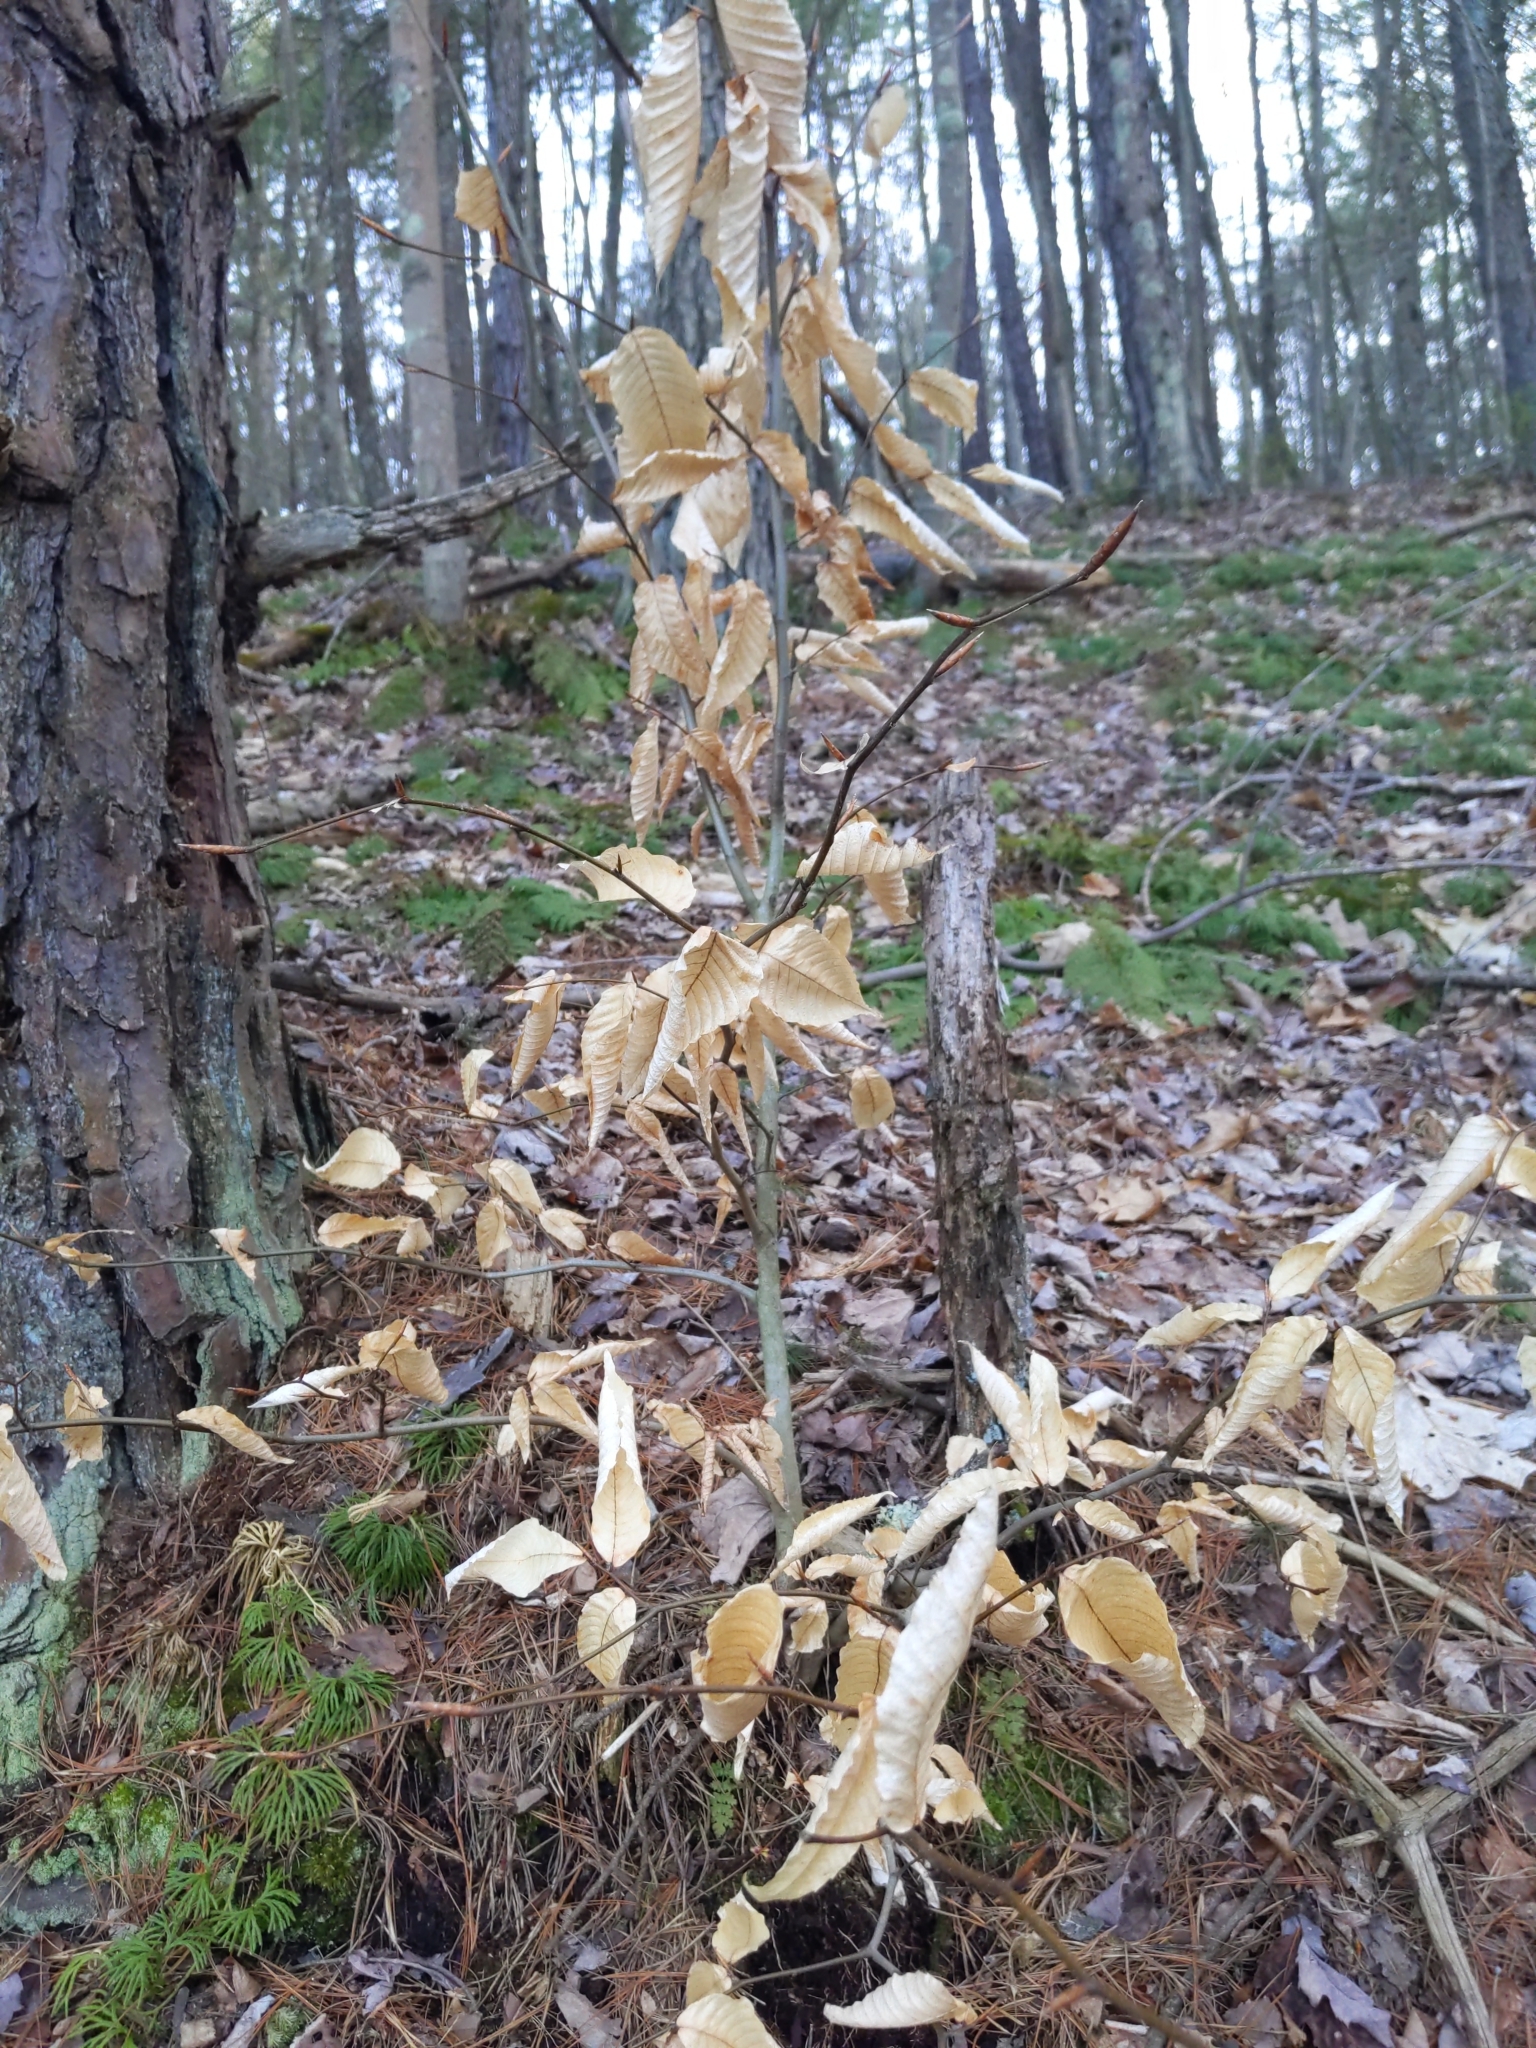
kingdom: Plantae
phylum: Tracheophyta
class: Magnoliopsida
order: Fagales
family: Fagaceae
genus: Fagus
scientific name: Fagus grandifolia
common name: American beech
